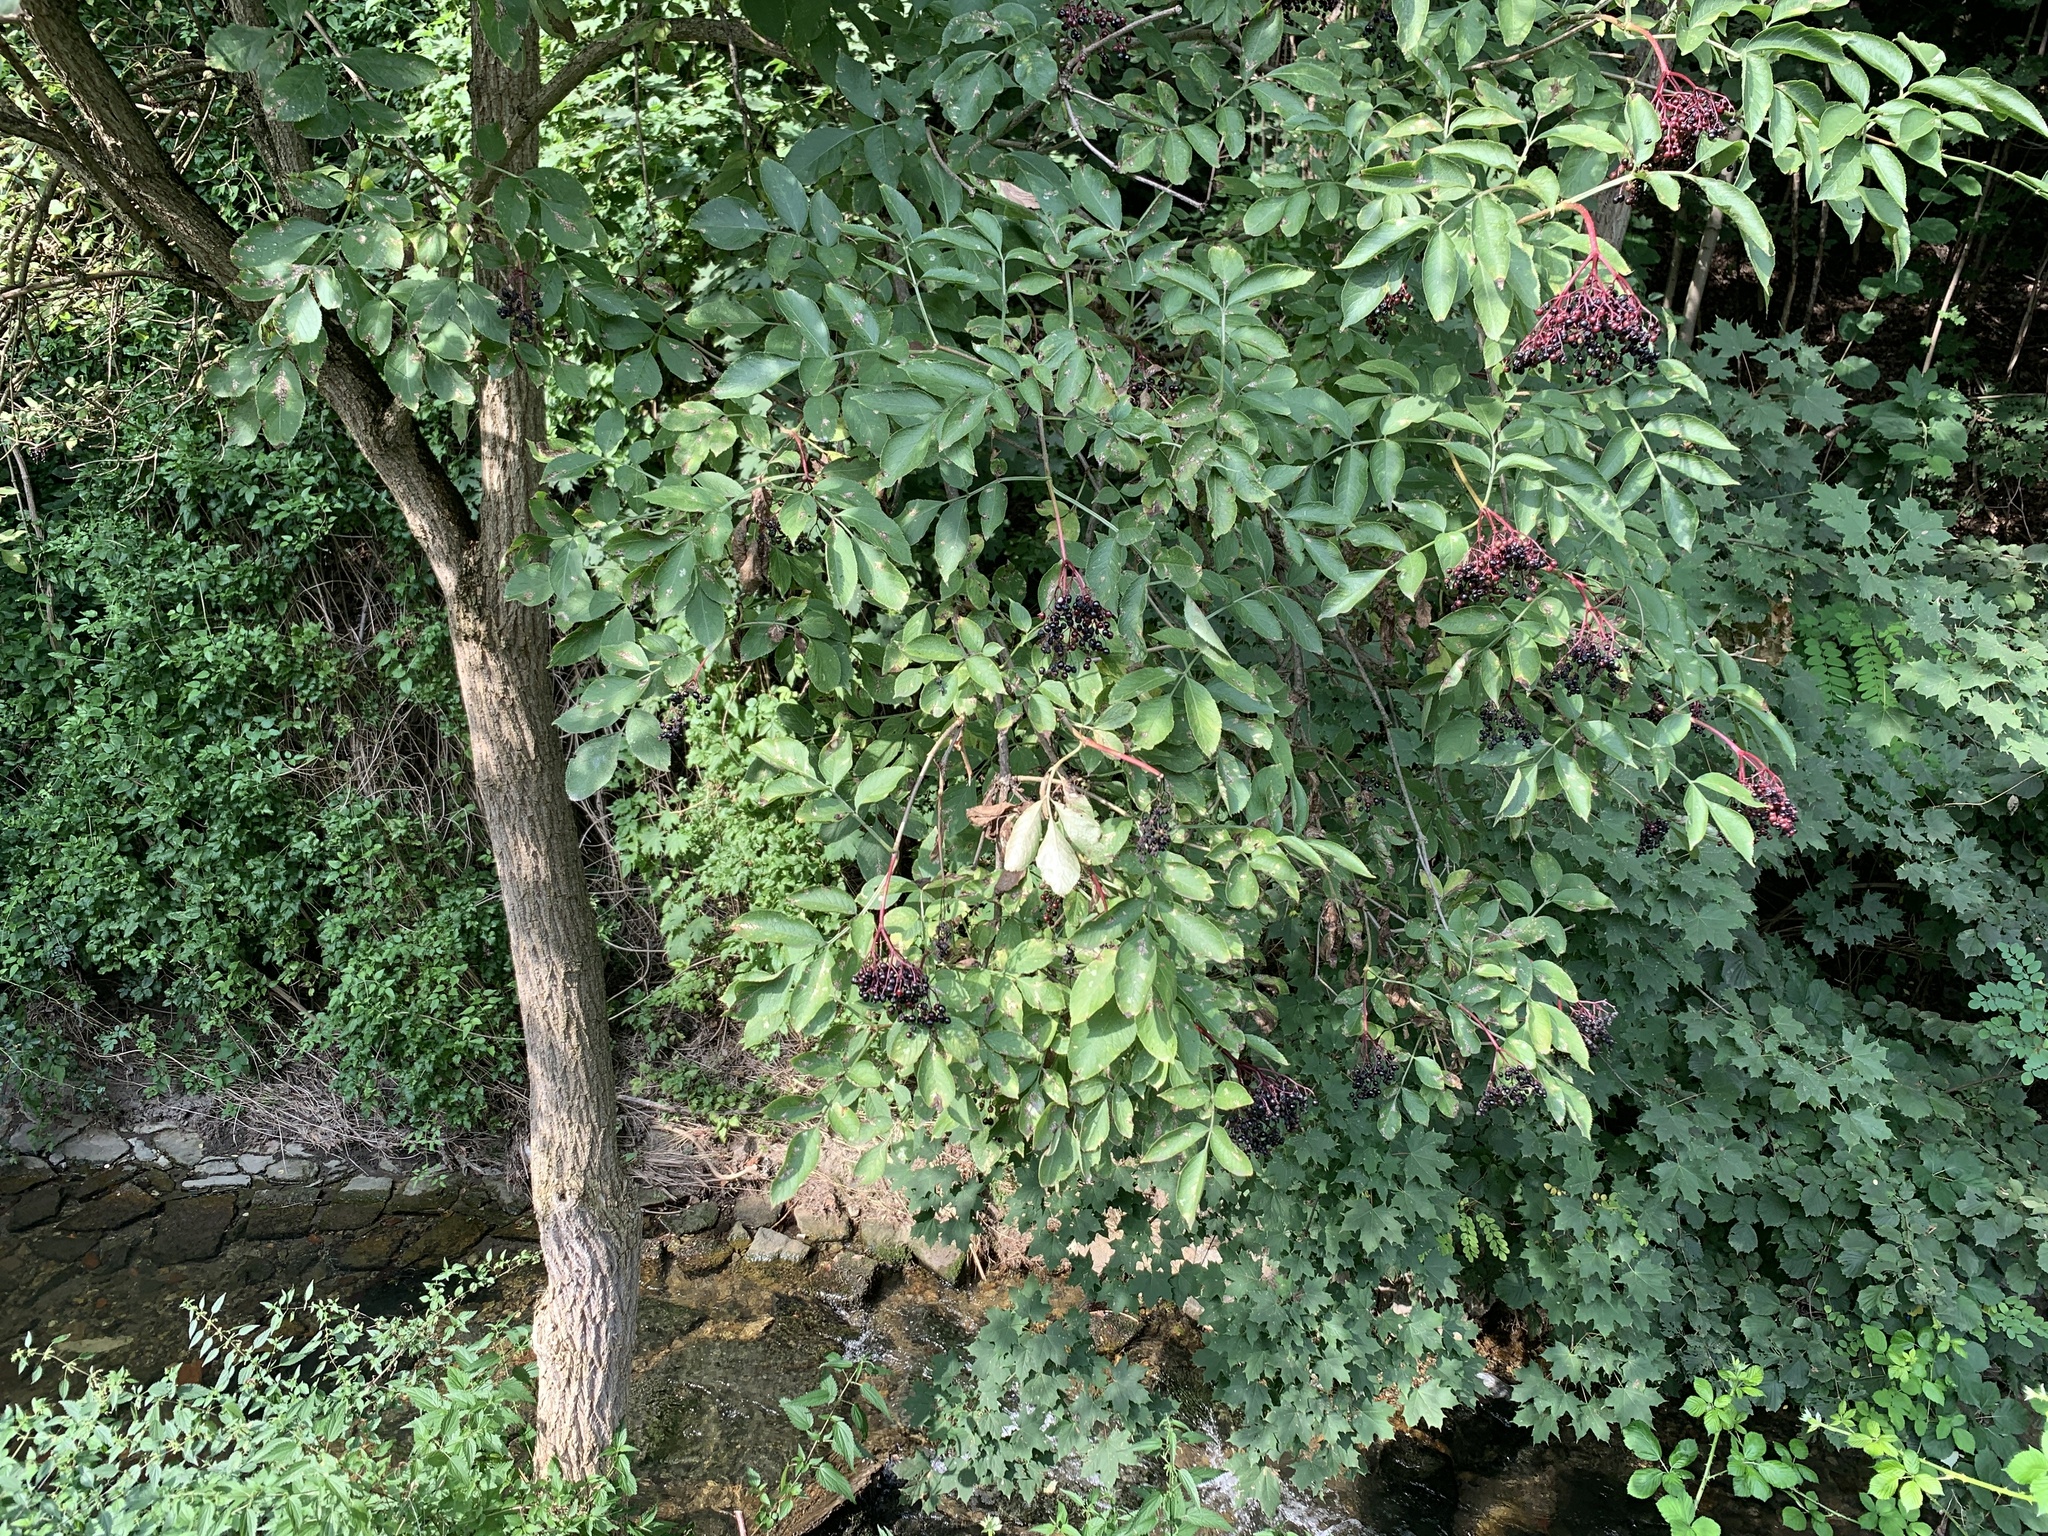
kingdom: Plantae
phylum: Tracheophyta
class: Magnoliopsida
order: Dipsacales
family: Viburnaceae
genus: Sambucus
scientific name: Sambucus nigra
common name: Elder
